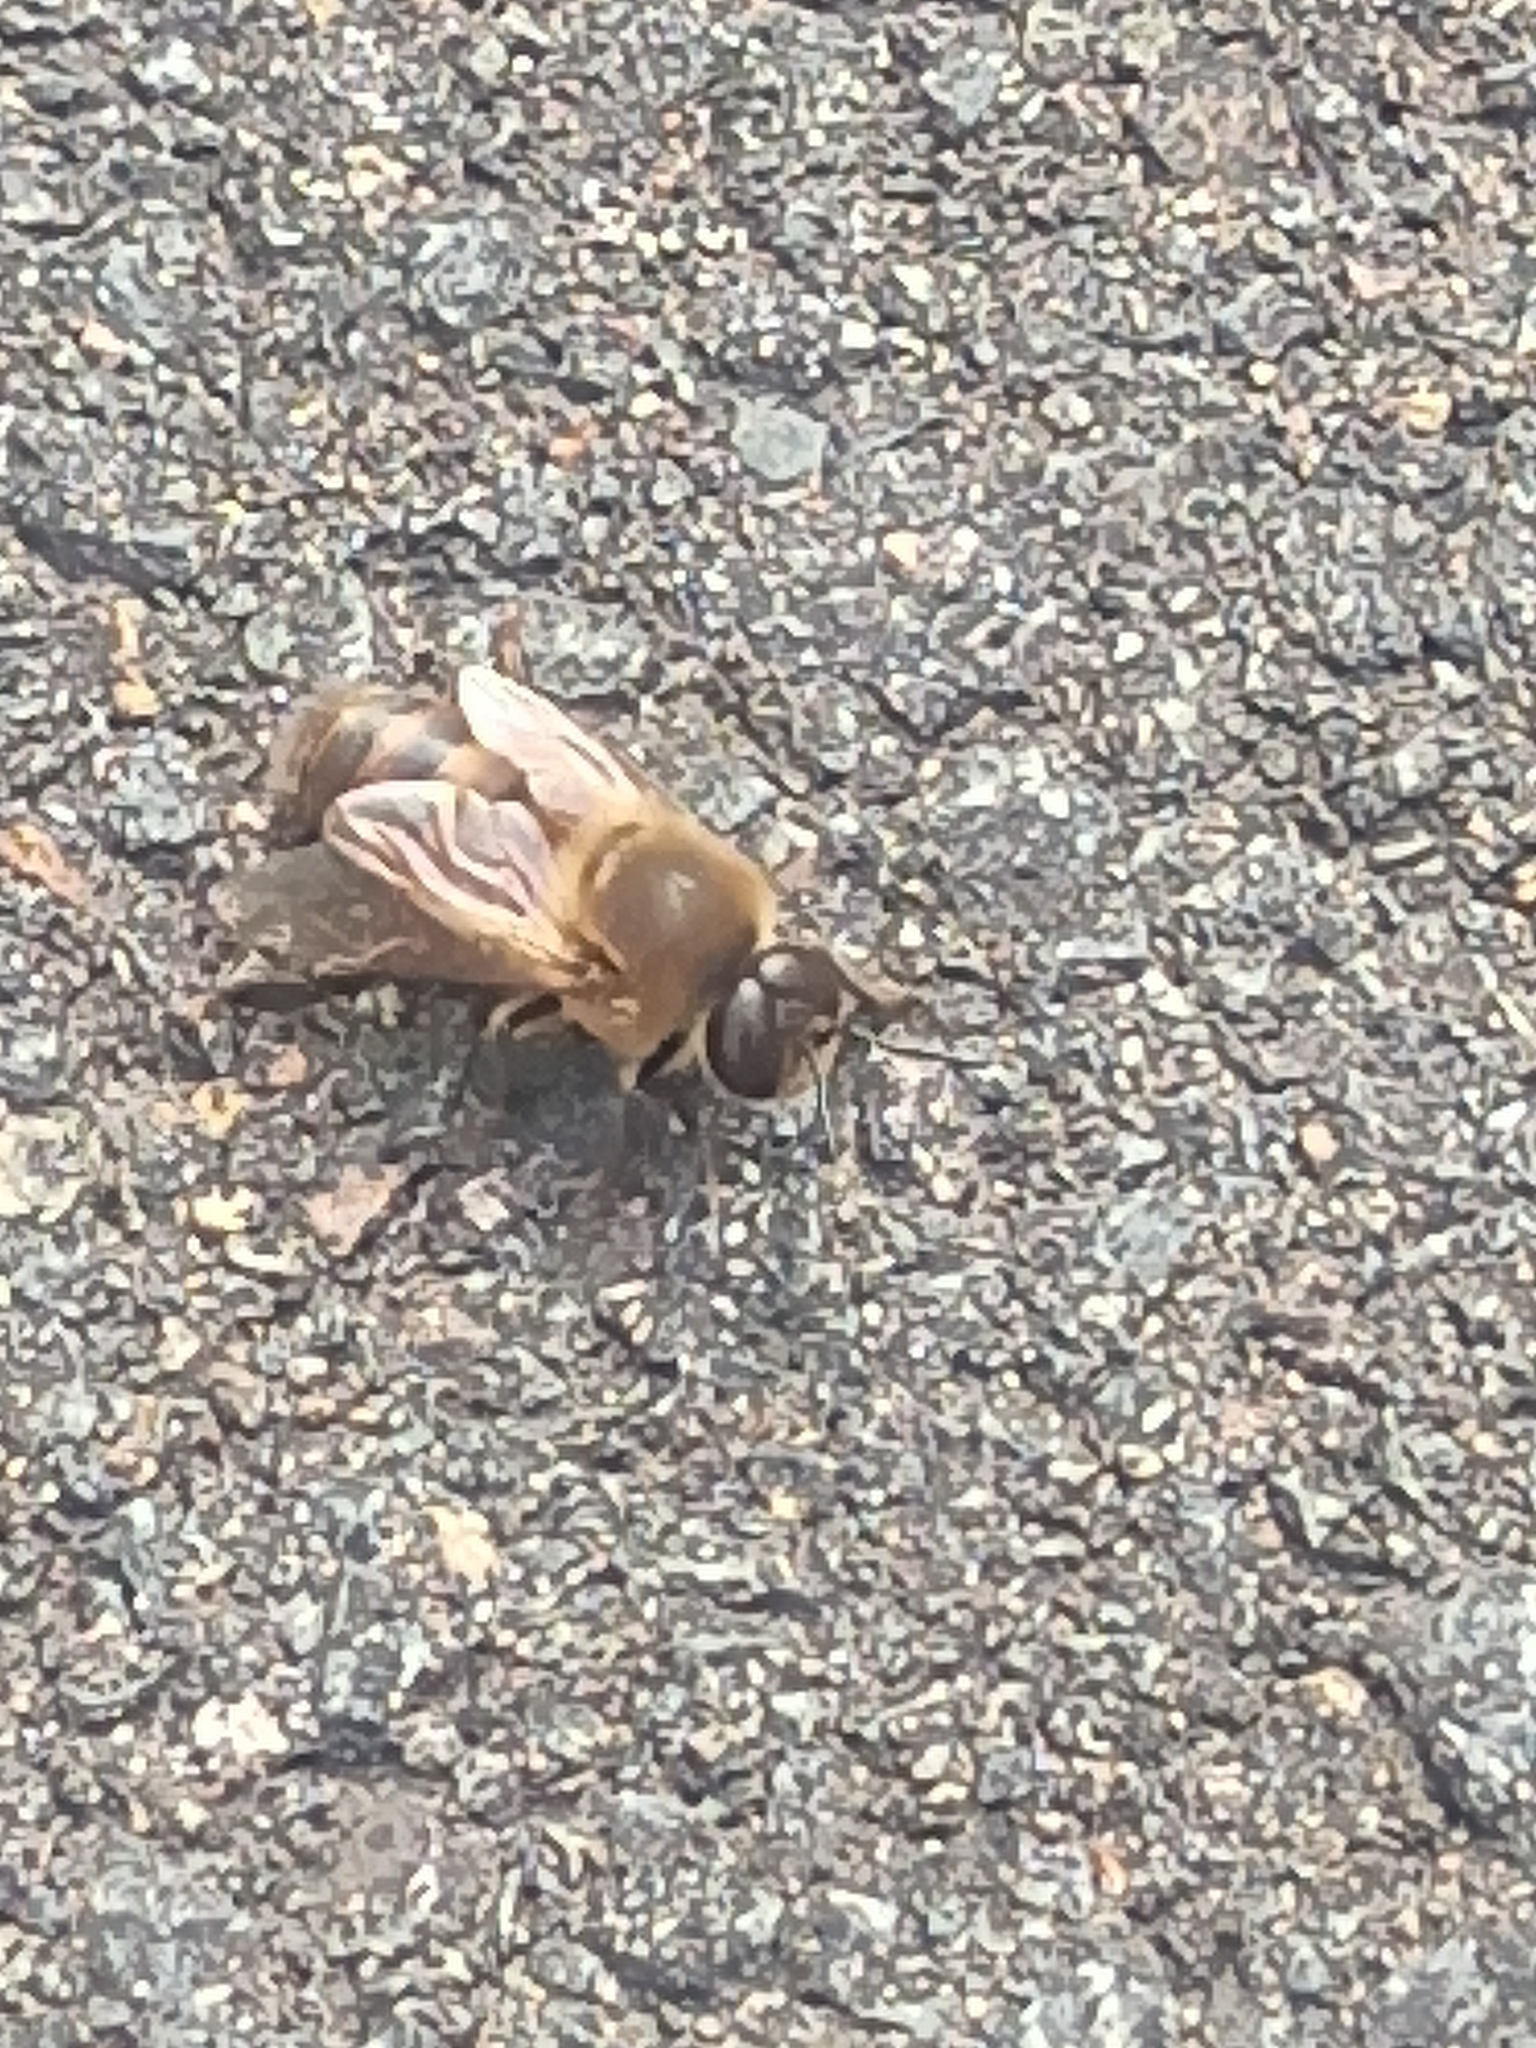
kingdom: Animalia
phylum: Arthropoda
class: Insecta
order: Hymenoptera
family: Apidae
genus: Apis
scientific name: Apis mellifera
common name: Honey bee
